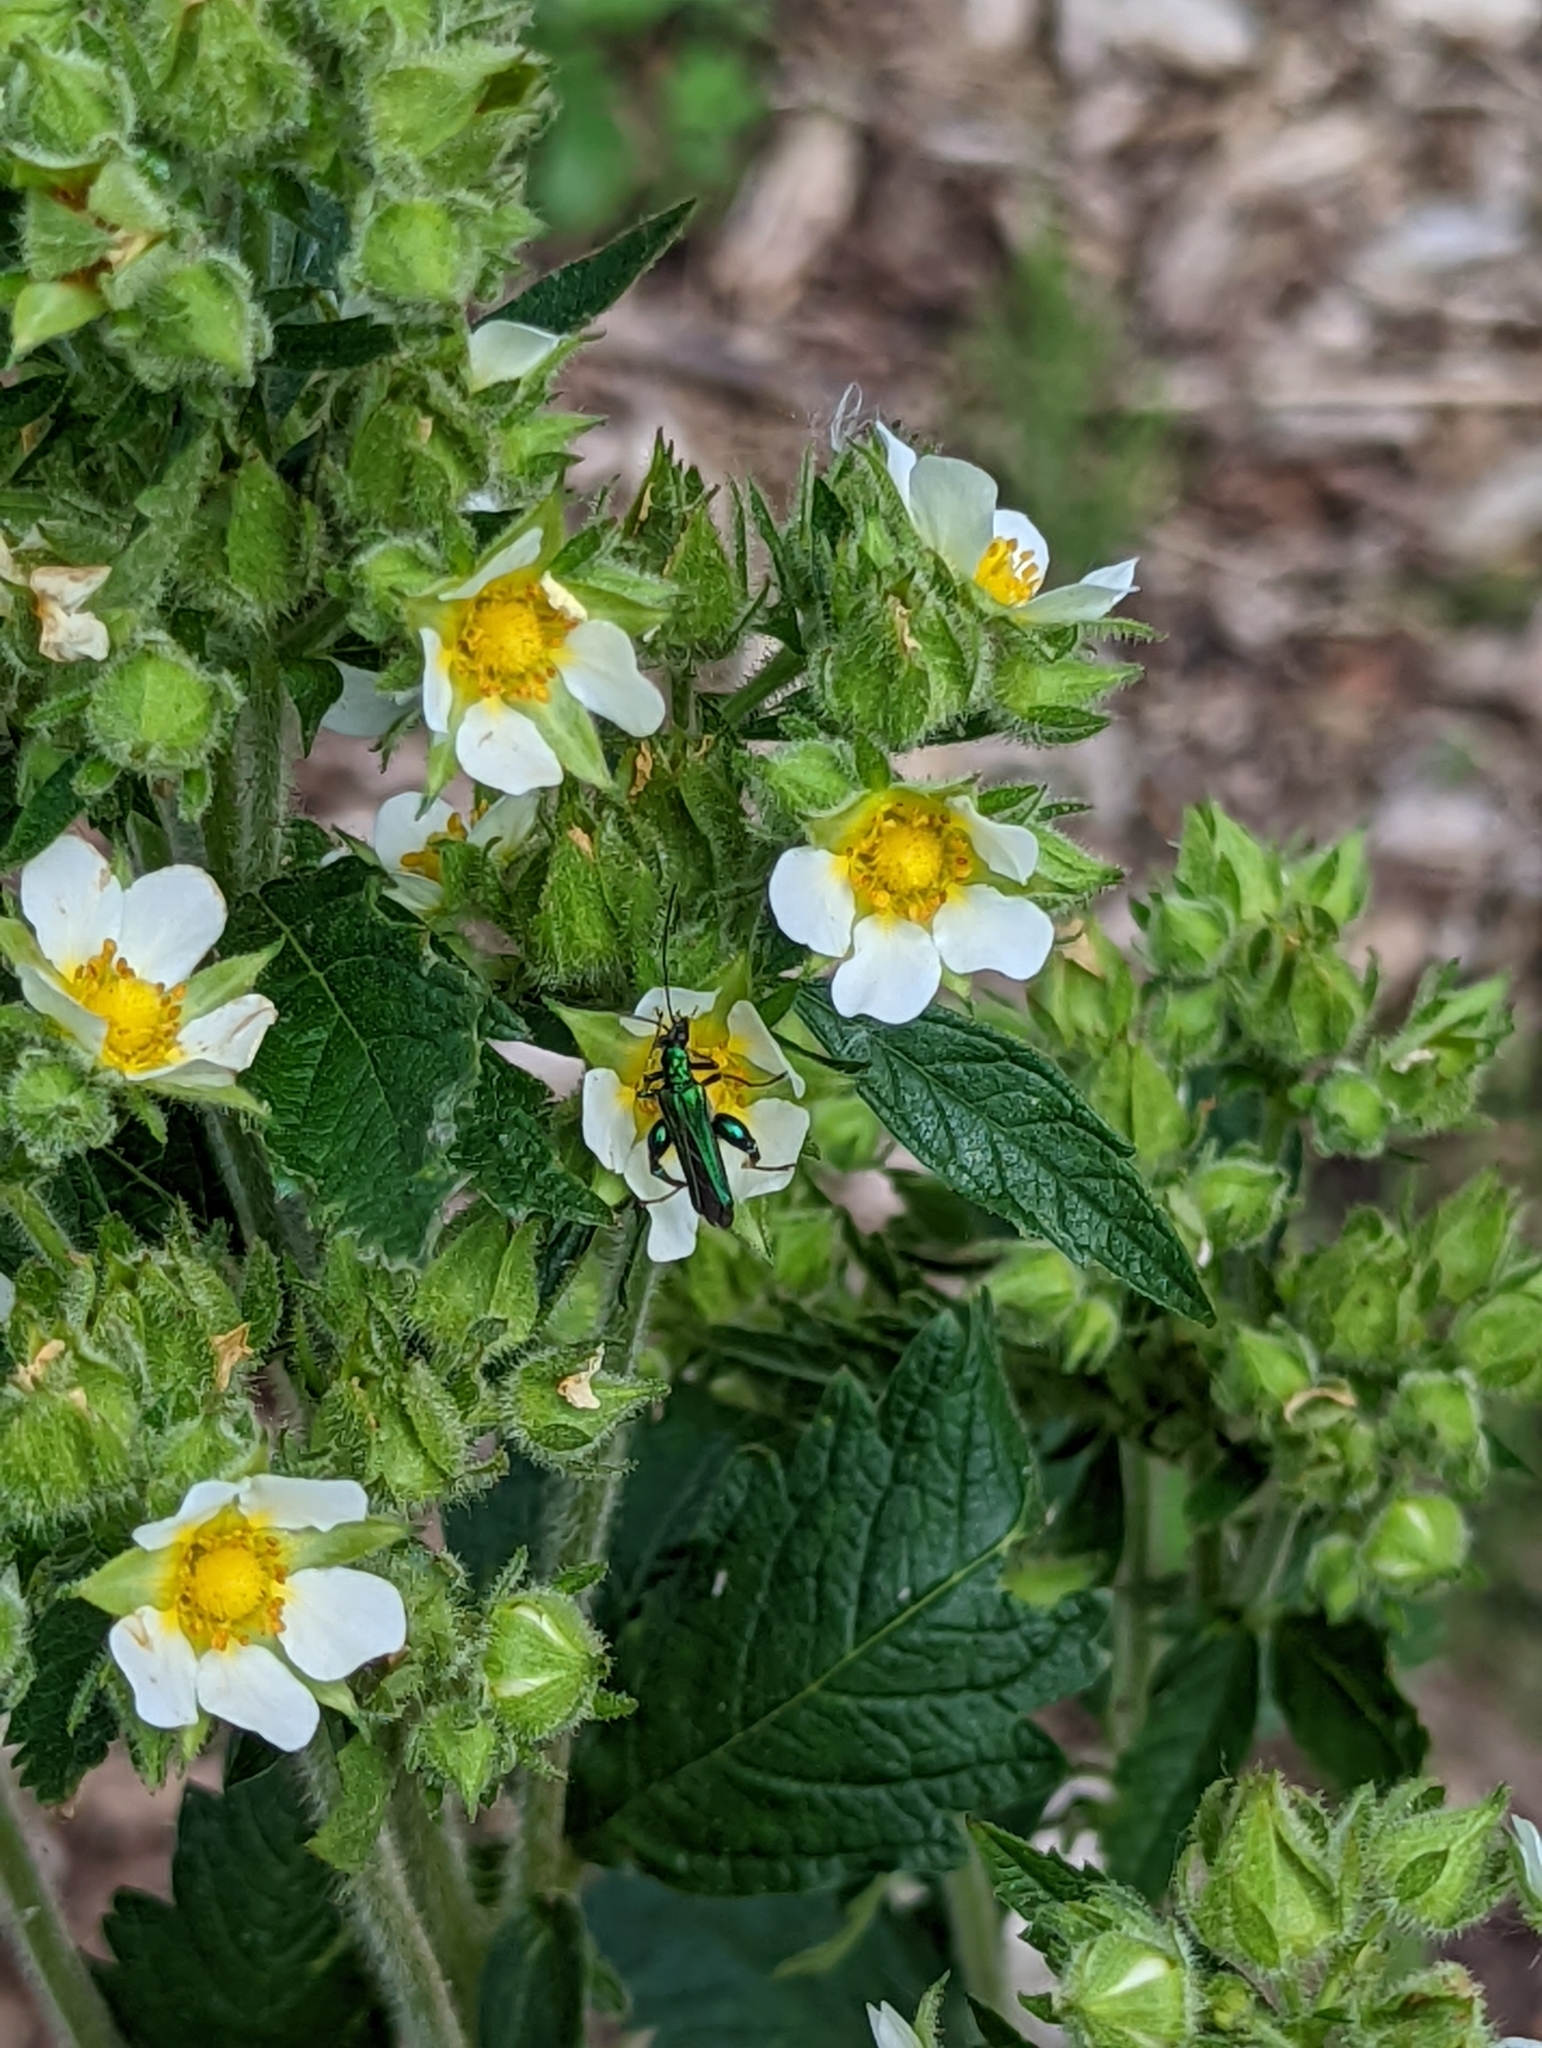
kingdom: Animalia
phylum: Arthropoda
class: Insecta
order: Coleoptera
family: Oedemeridae
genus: Oedemera
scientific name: Oedemera nobilis
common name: Swollen-thighed beetle
